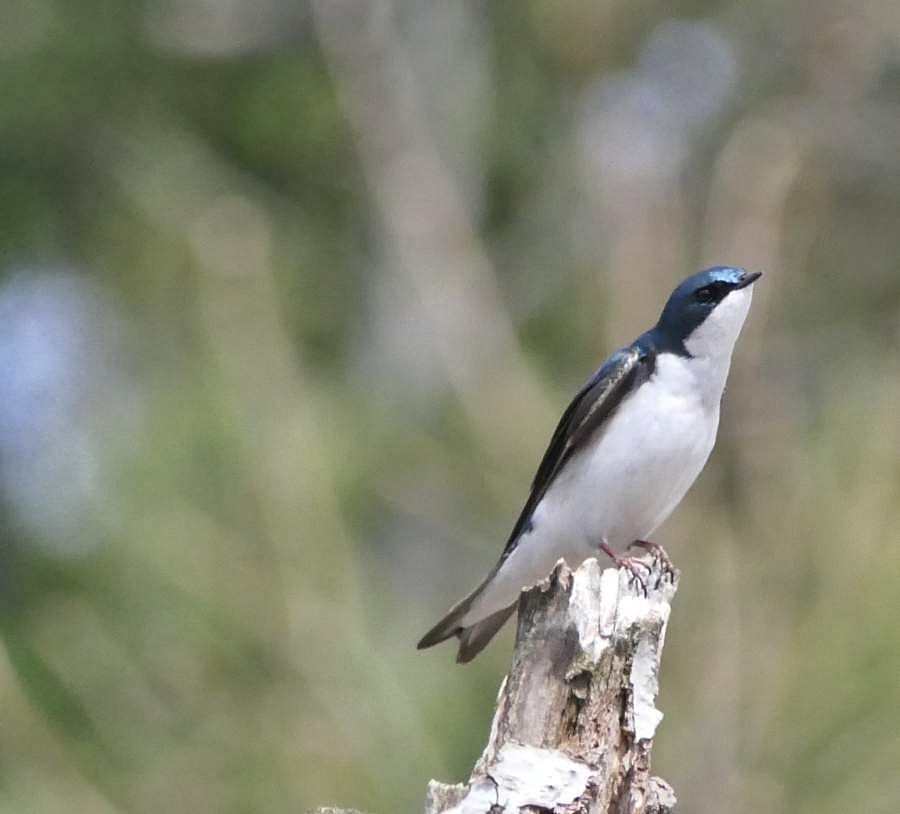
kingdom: Animalia
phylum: Chordata
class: Aves
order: Passeriformes
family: Hirundinidae
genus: Tachycineta
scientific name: Tachycineta bicolor
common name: Tree swallow
